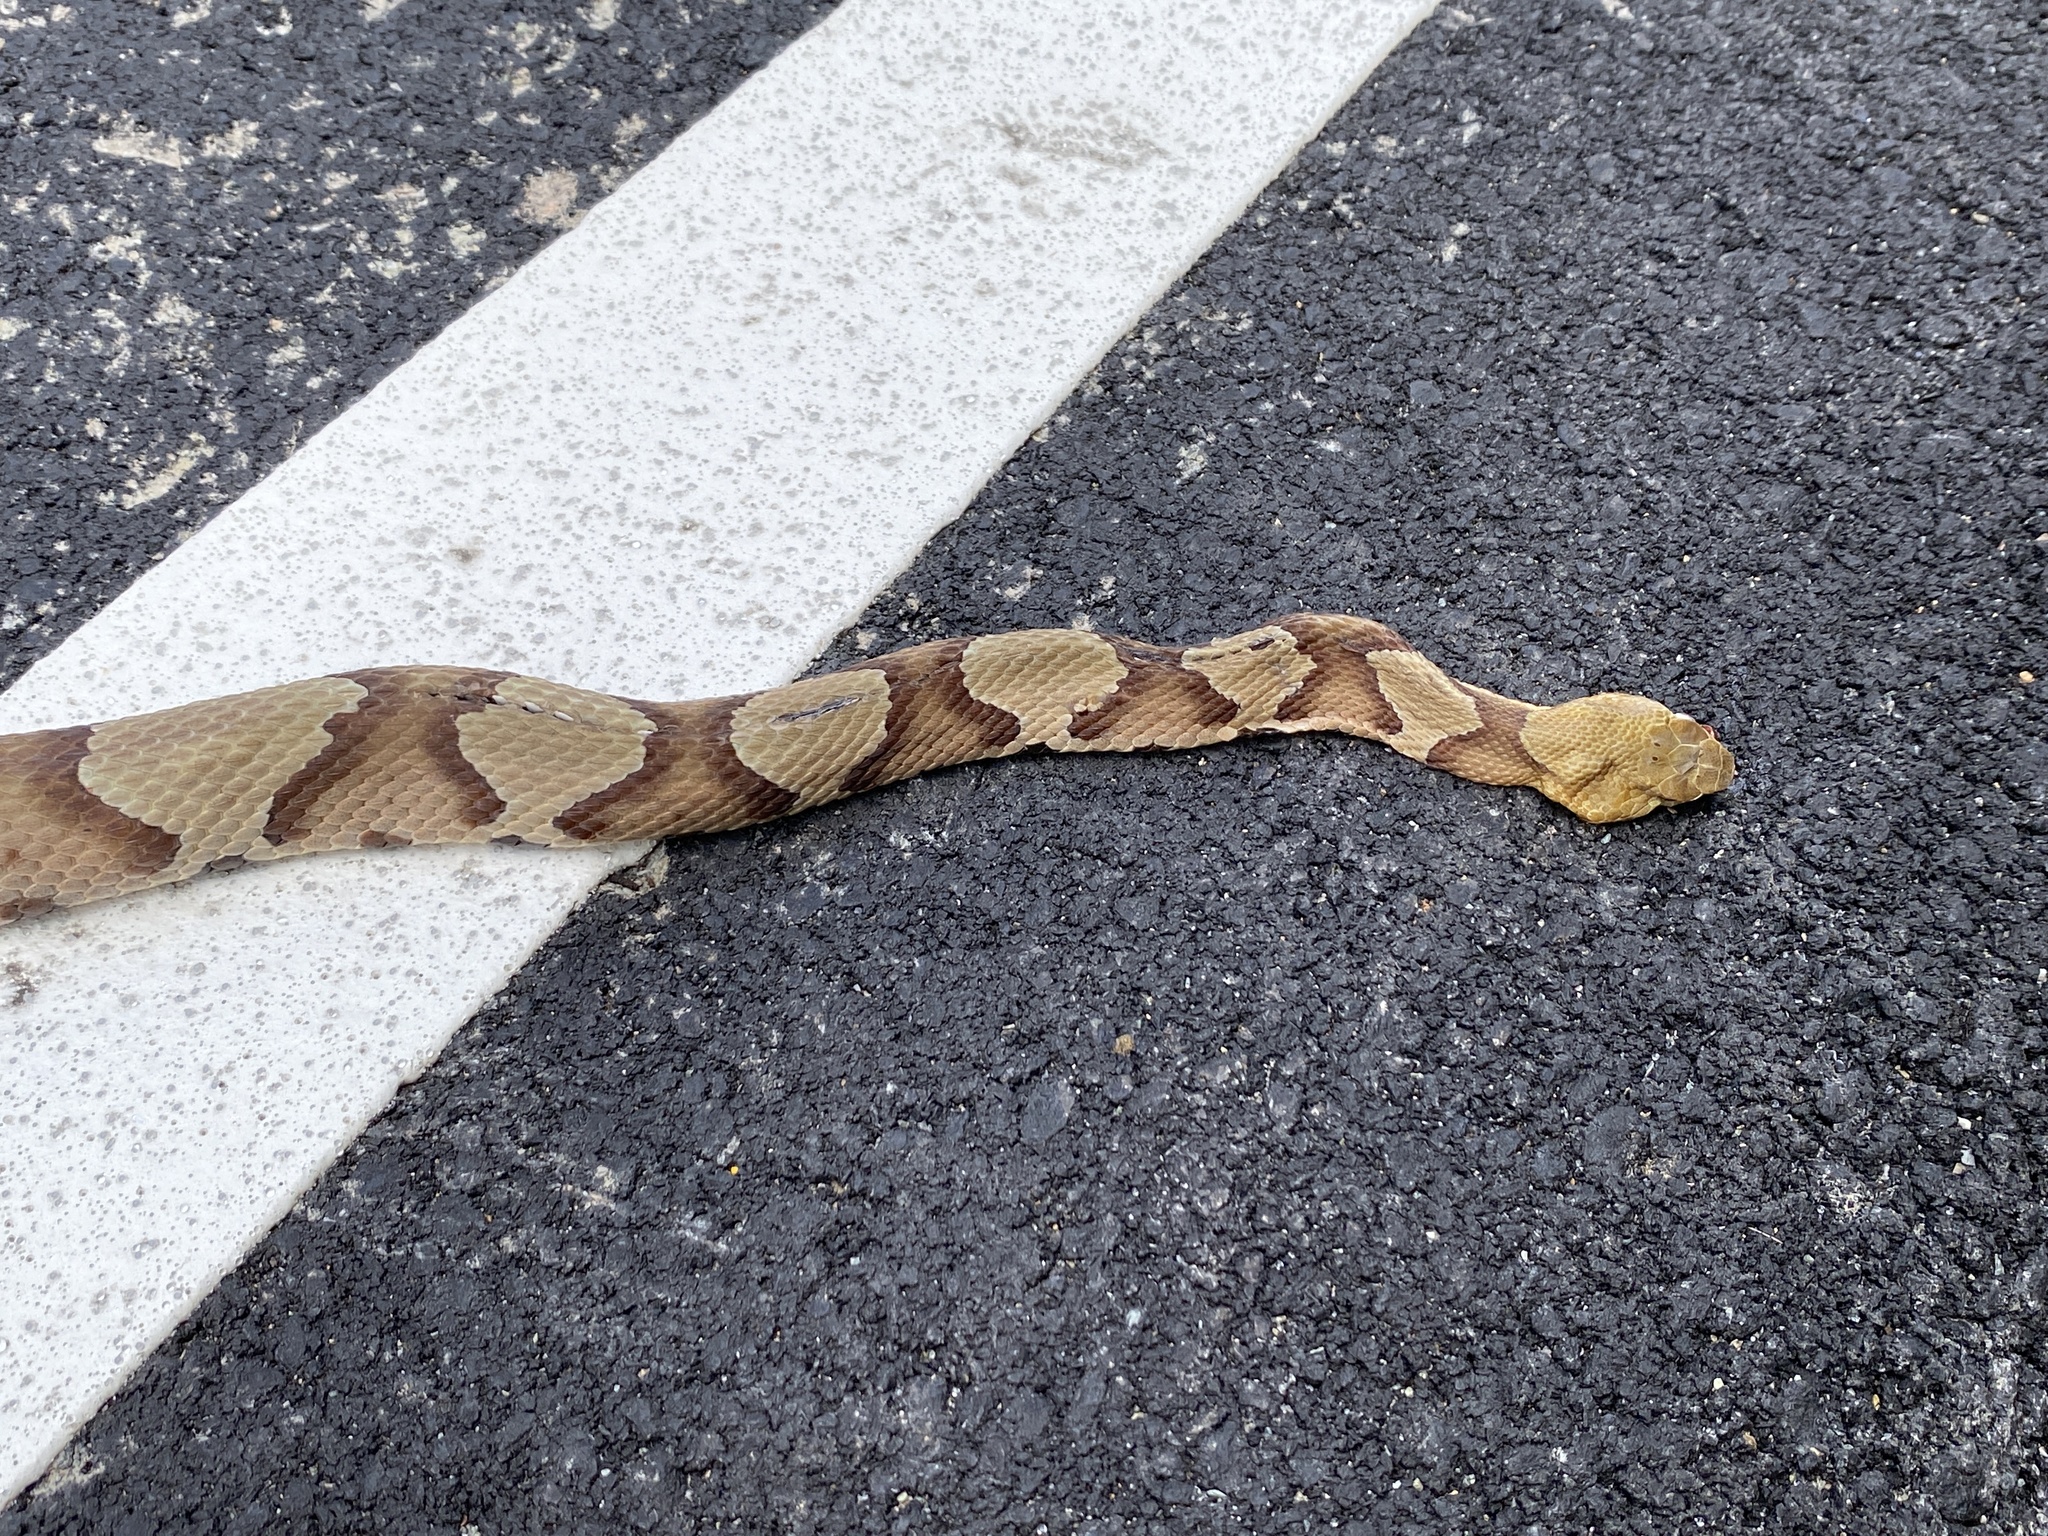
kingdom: Animalia
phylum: Chordata
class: Squamata
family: Viperidae
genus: Agkistrodon
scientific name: Agkistrodon contortrix
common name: Northern copperhead
